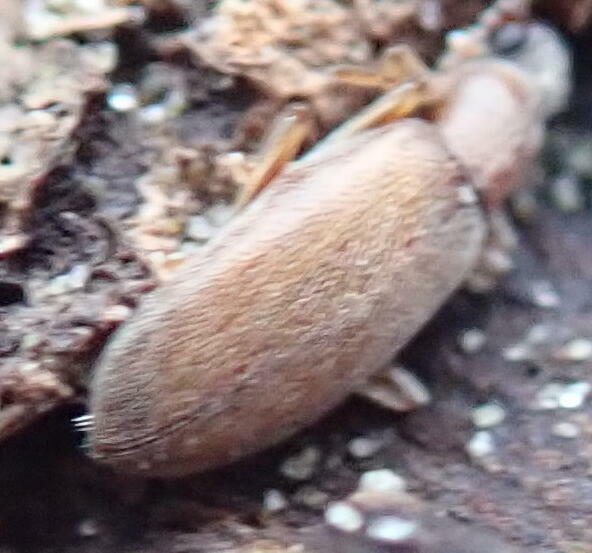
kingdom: Animalia
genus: Lagrioda
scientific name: Lagrioda brounii
